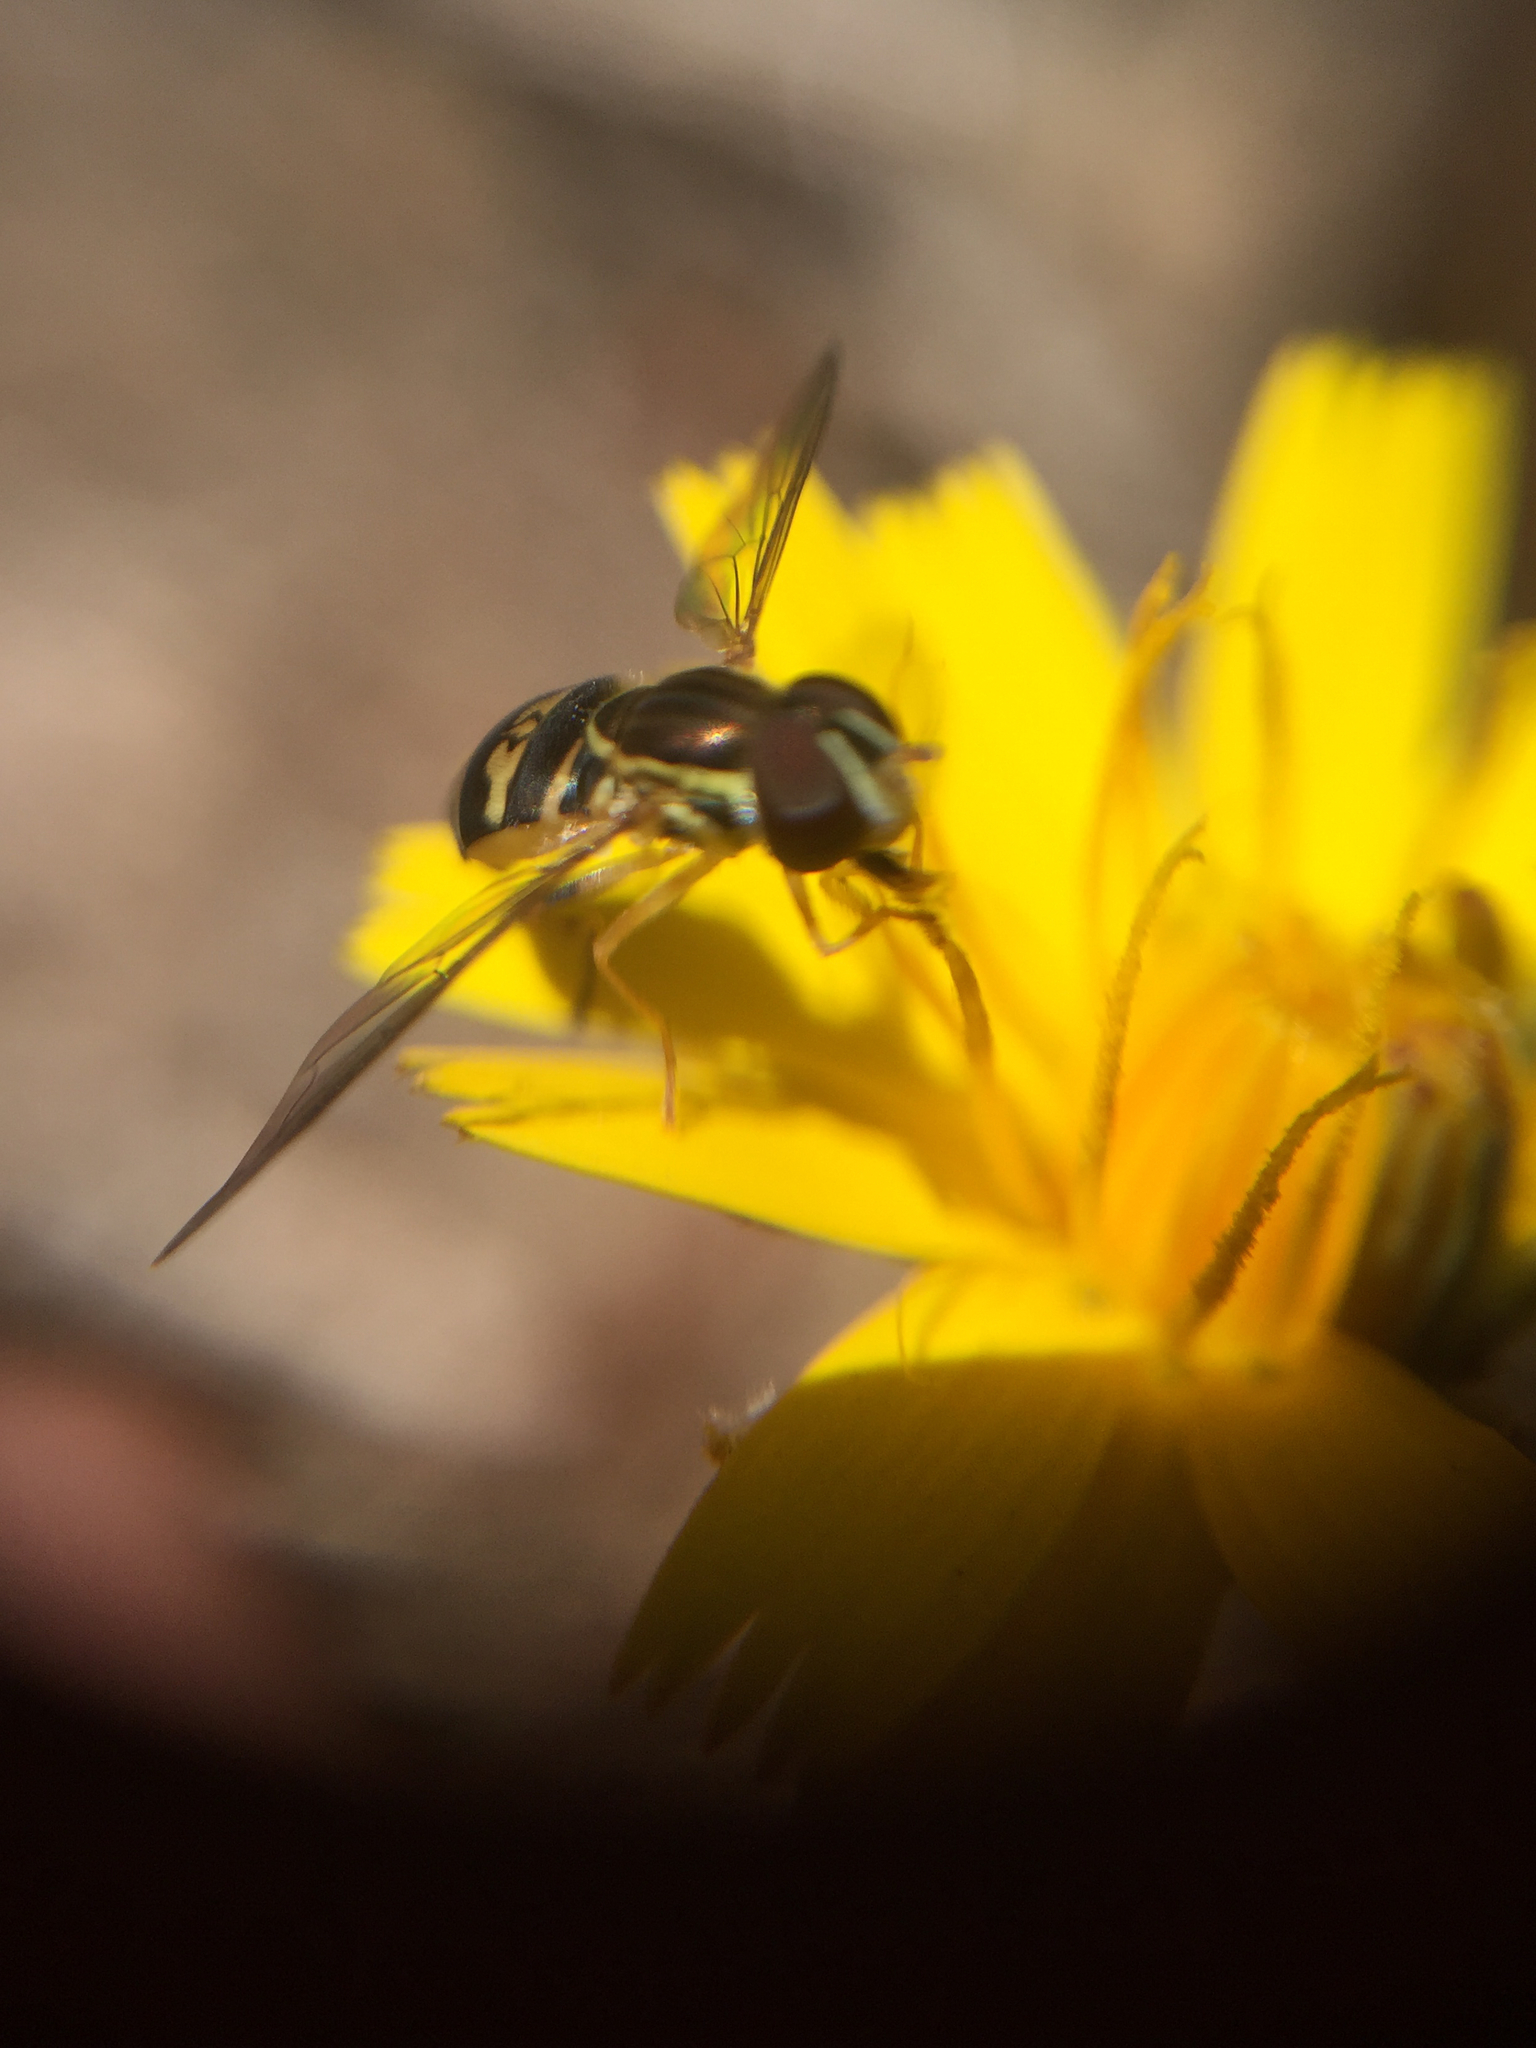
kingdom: Animalia
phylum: Arthropoda
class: Insecta
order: Diptera
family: Syrphidae
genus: Toxomerus
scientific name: Toxomerus occidentalis
